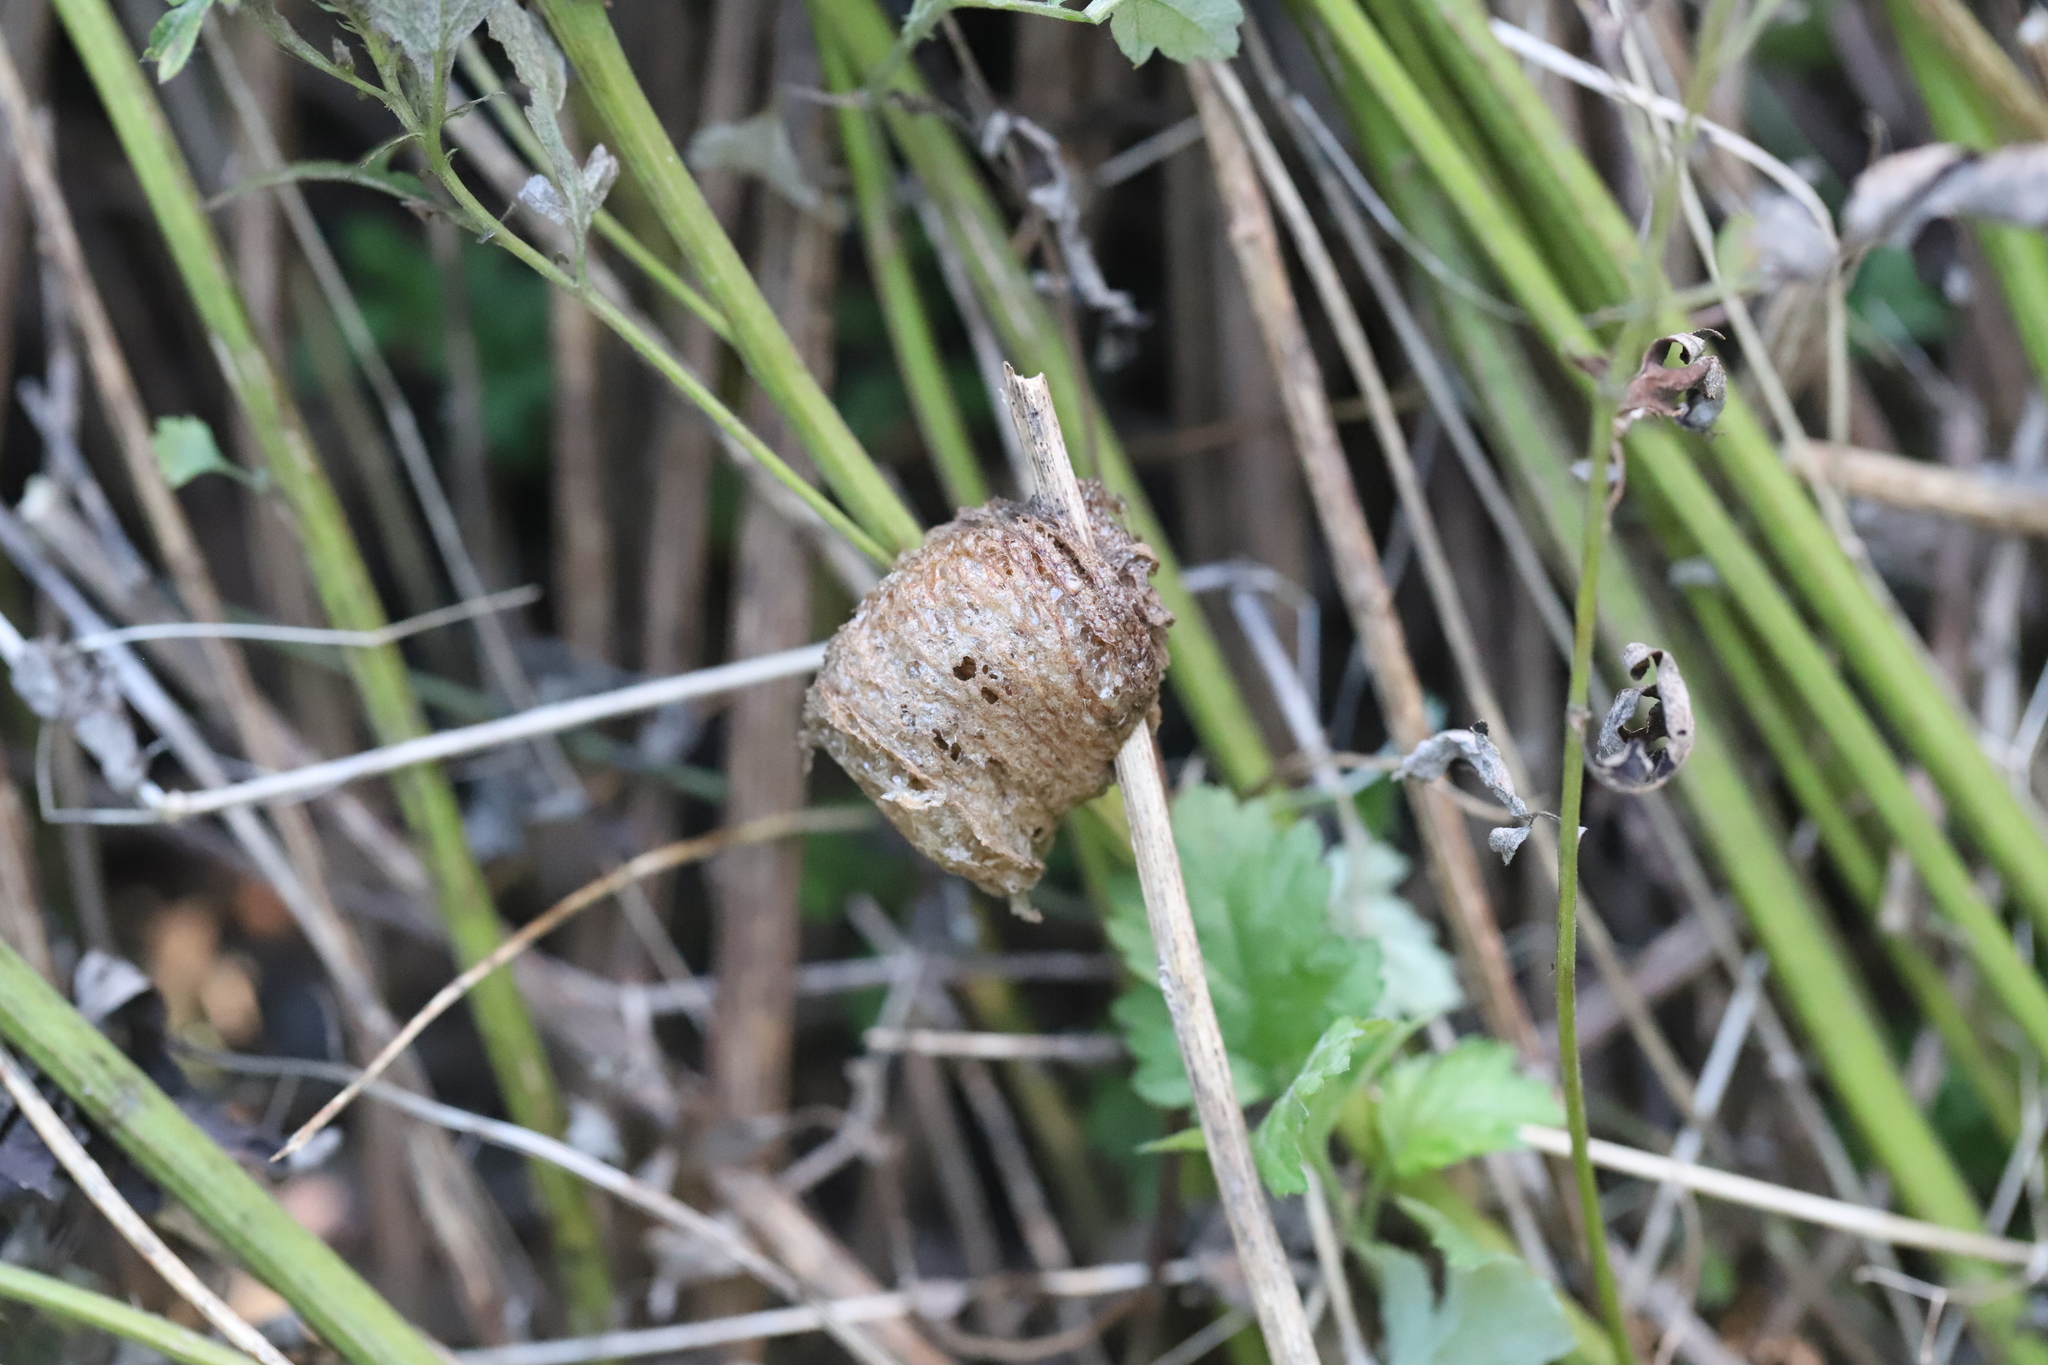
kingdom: Animalia
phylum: Arthropoda
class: Insecta
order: Mantodea
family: Mantidae
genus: Tenodera
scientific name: Tenodera sinensis
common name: Chinese mantis
